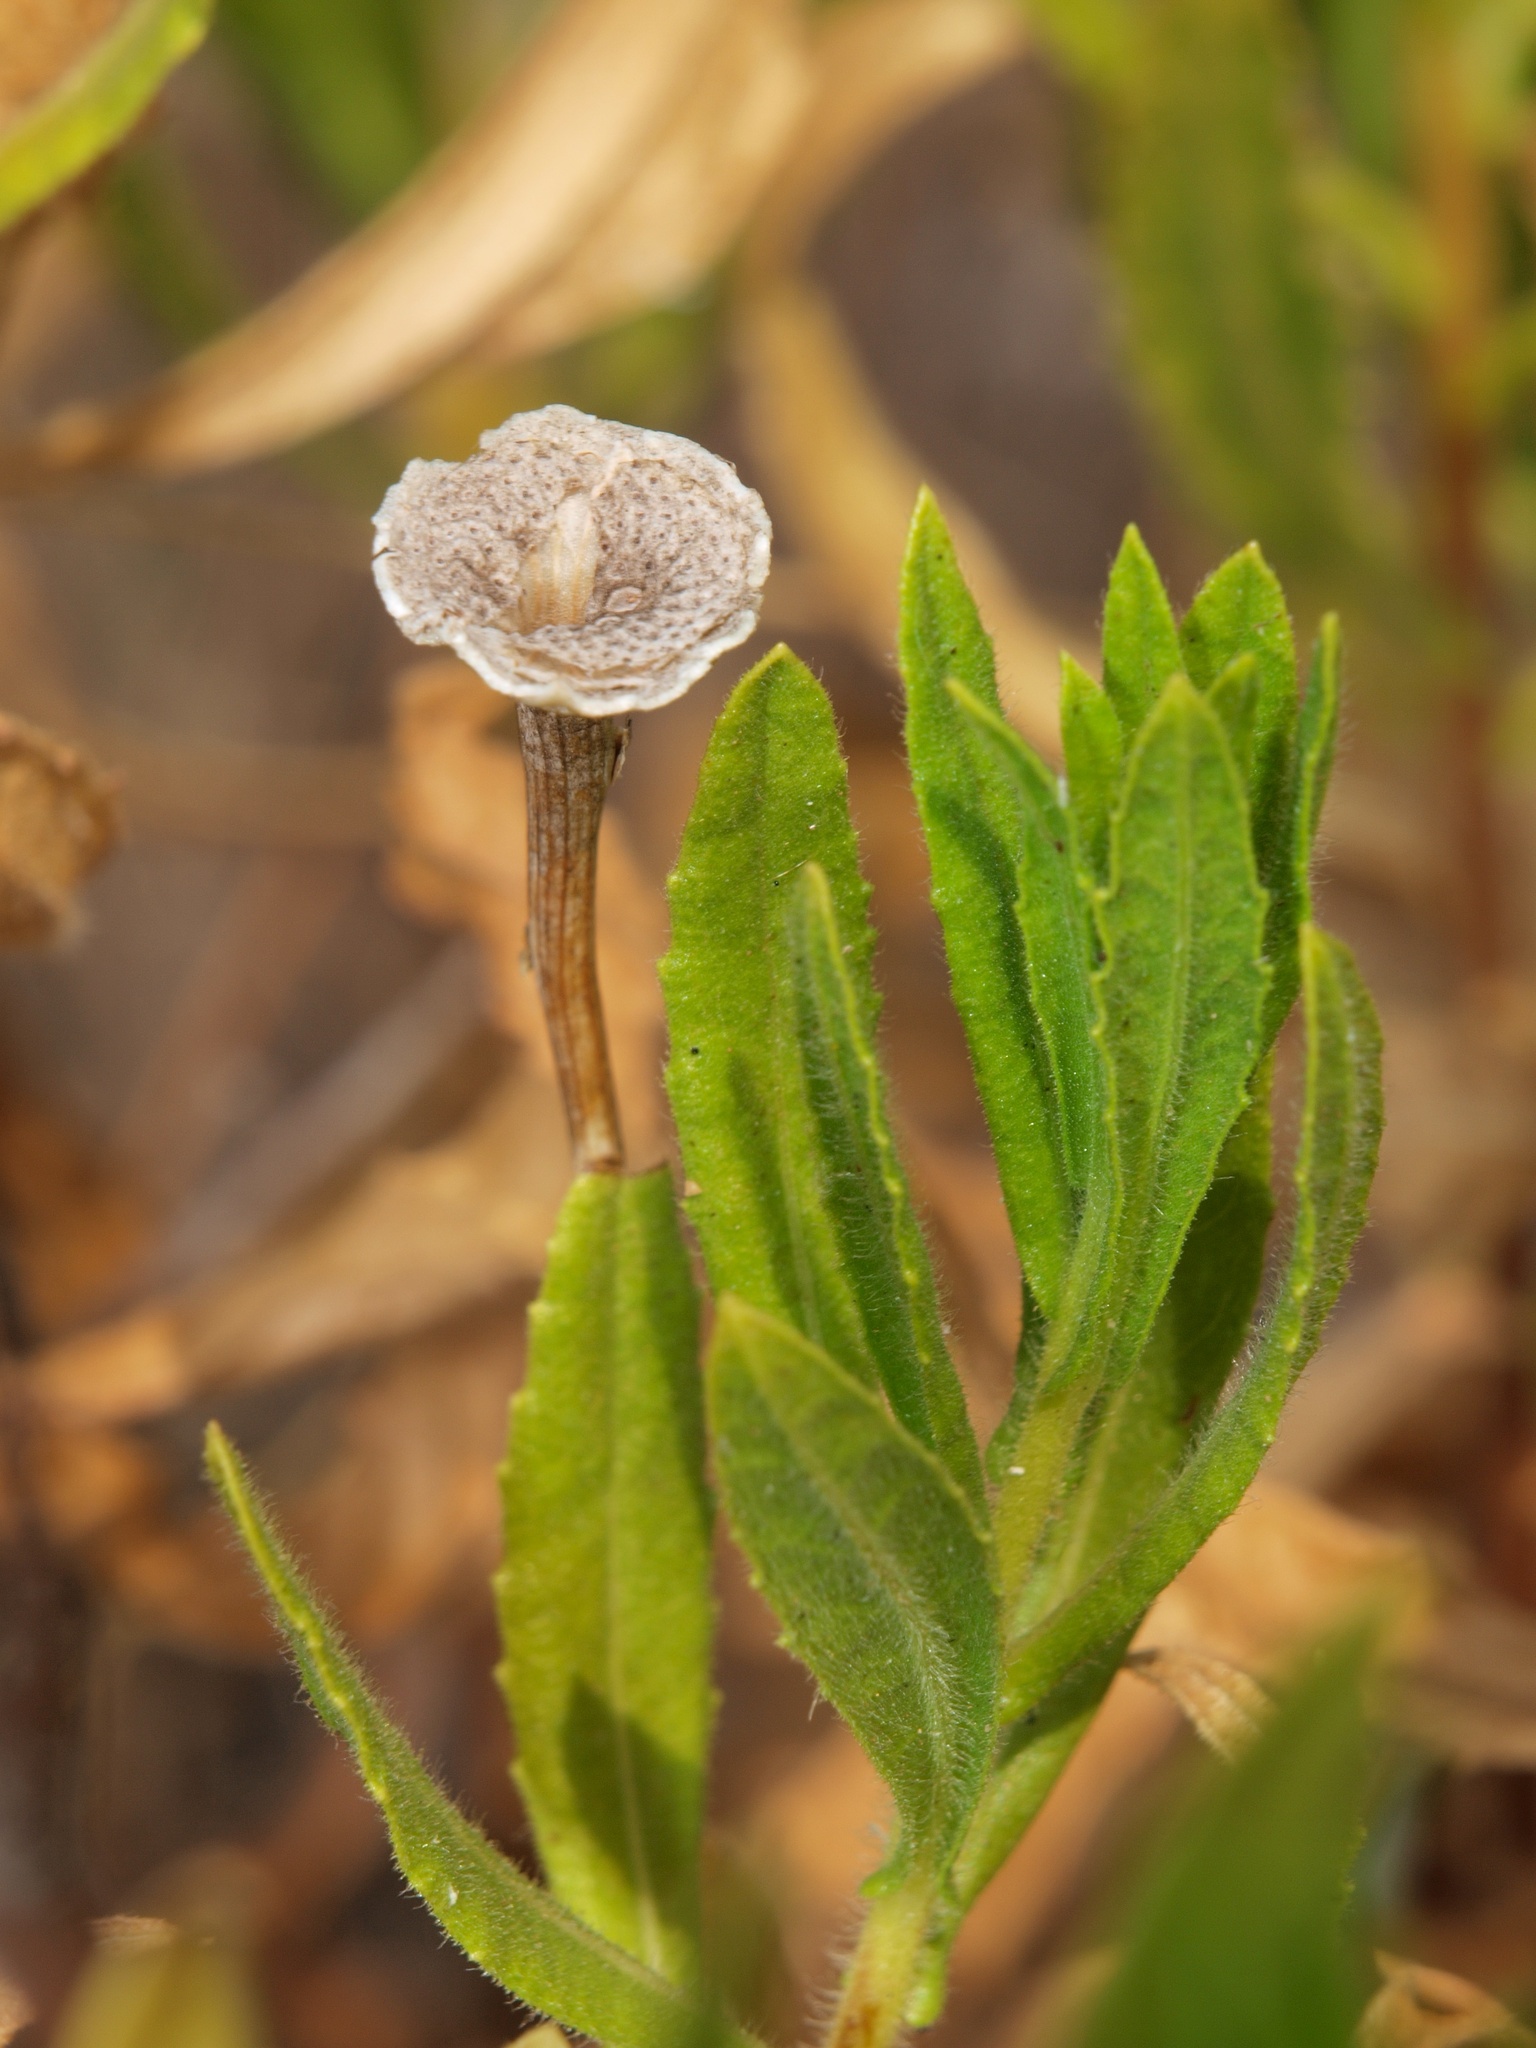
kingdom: Plantae
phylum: Tracheophyta
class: Magnoliopsida
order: Asterales
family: Asteraceae
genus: Dittrichia
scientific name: Dittrichia viscosa
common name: Woody fleabane
